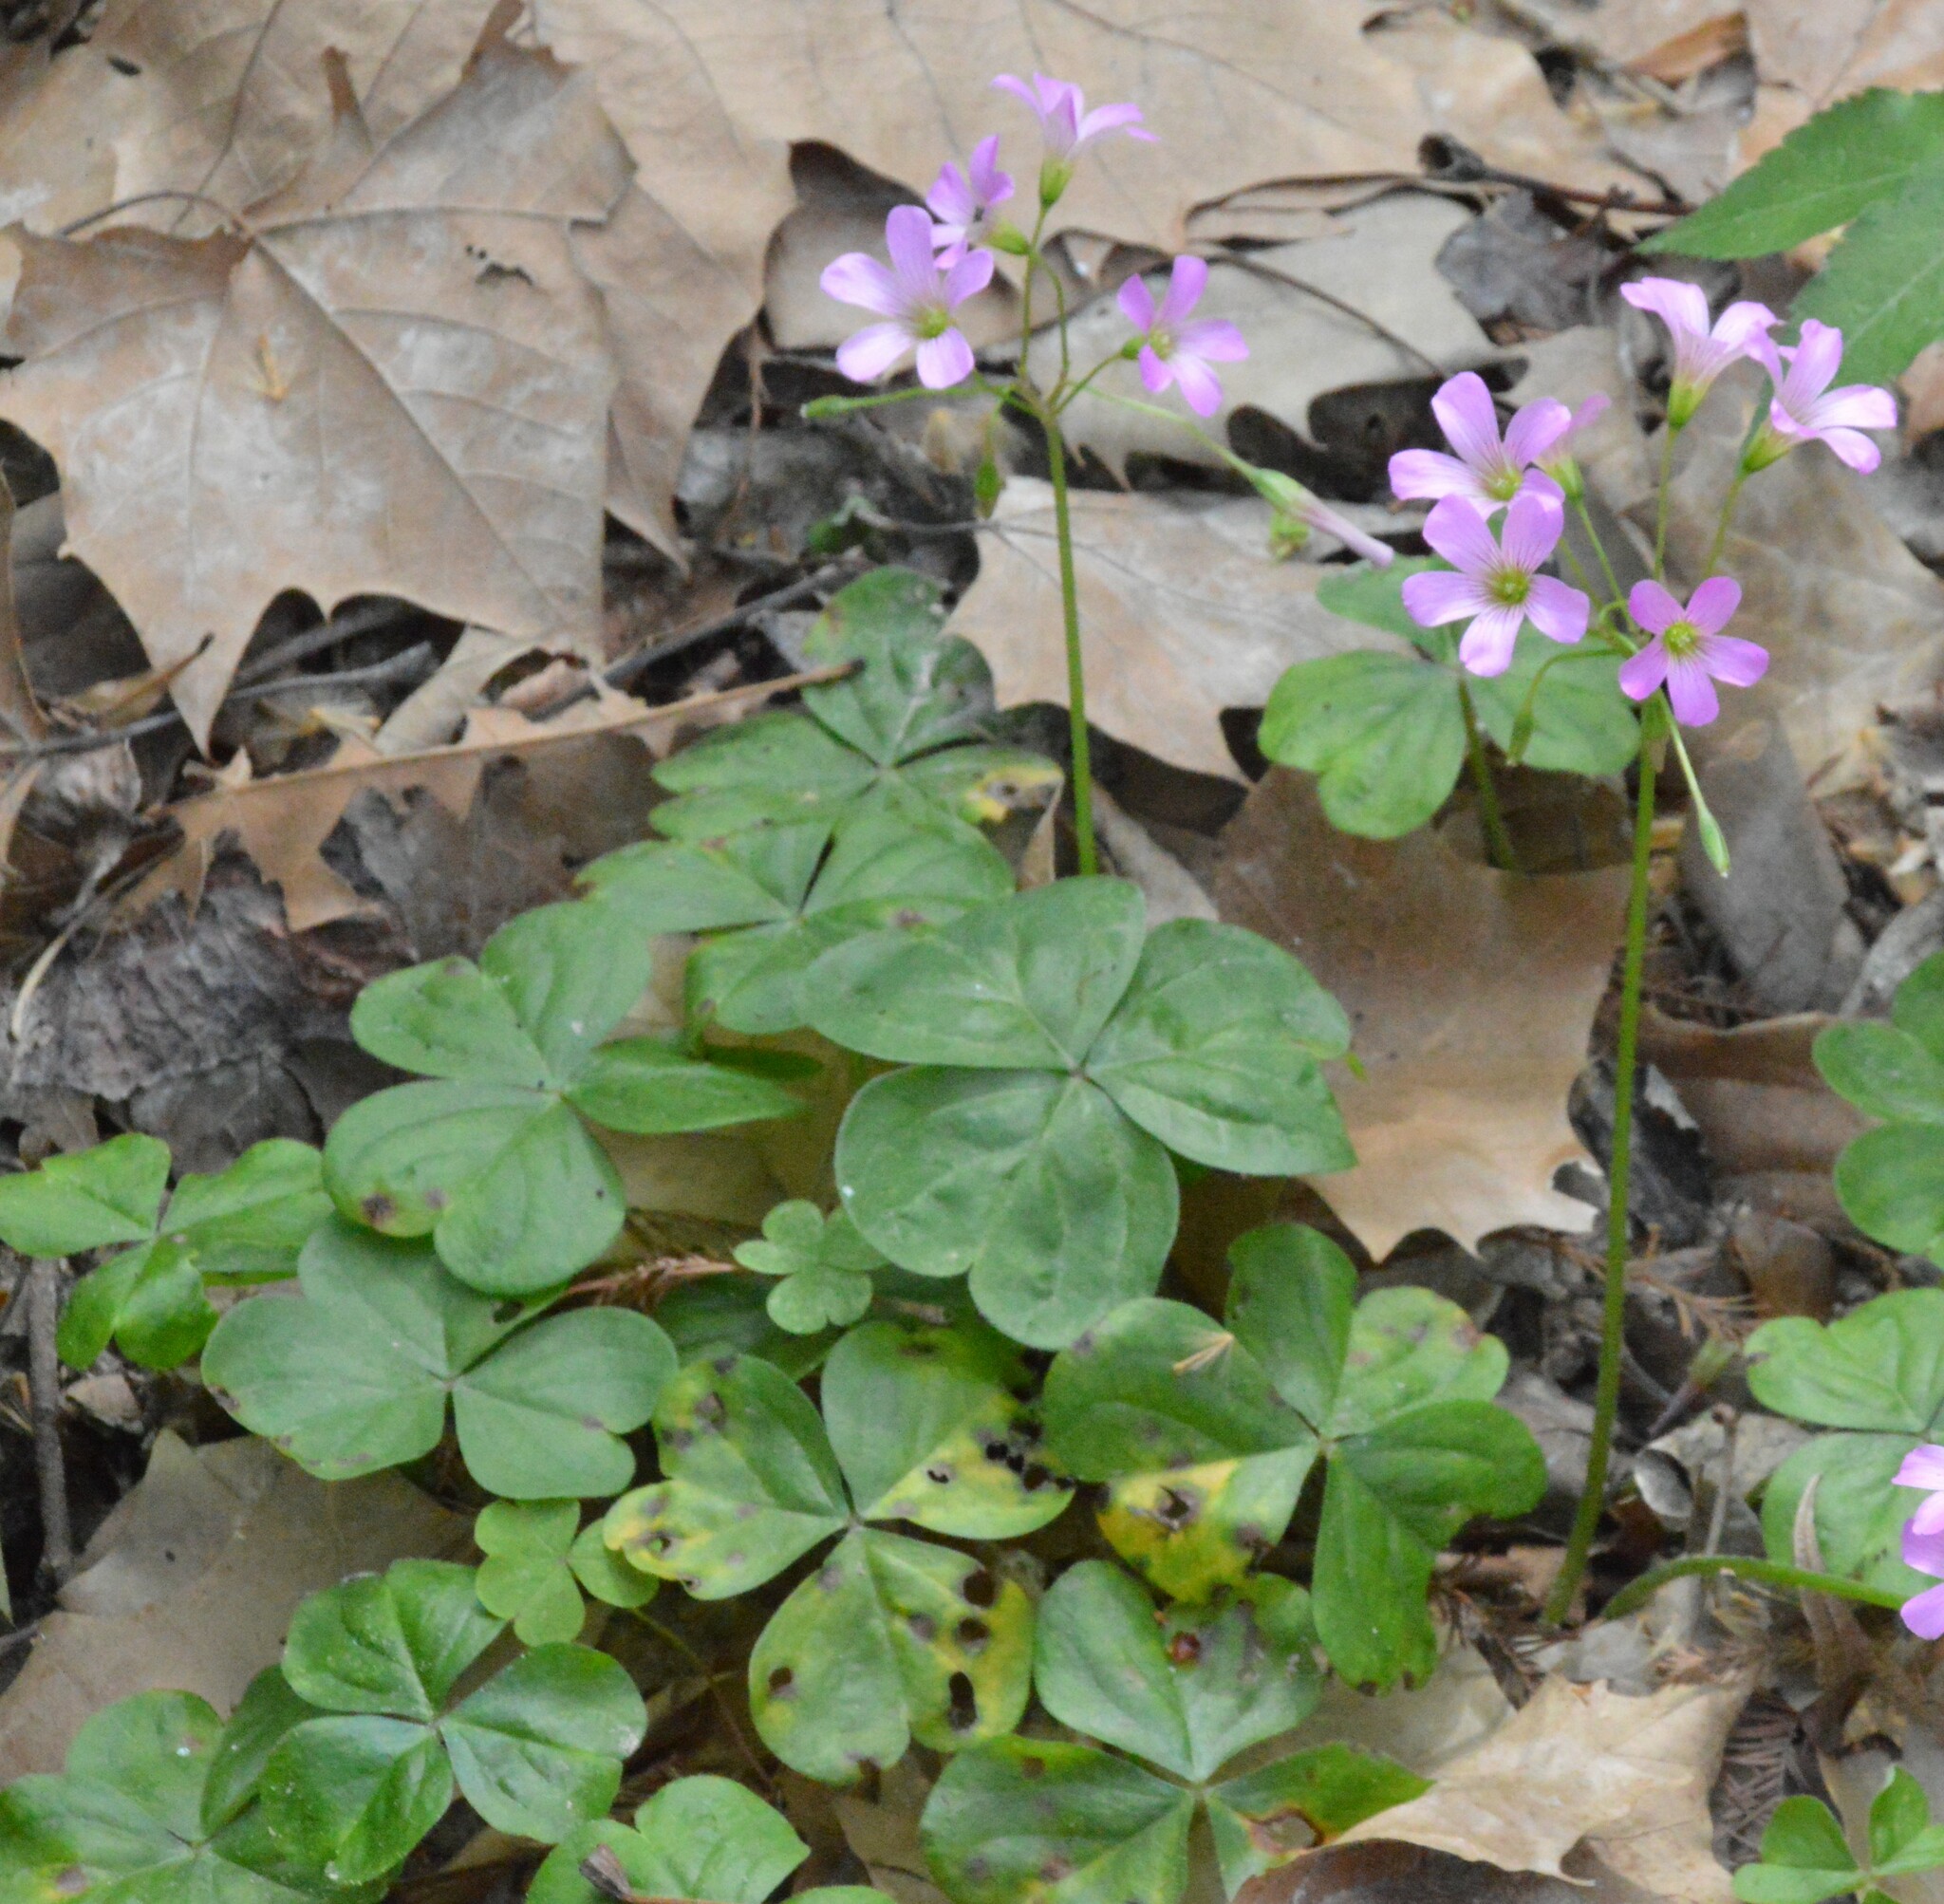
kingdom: Plantae
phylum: Tracheophyta
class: Magnoliopsida
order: Oxalidales
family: Oxalidaceae
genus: Oxalis
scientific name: Oxalis debilis
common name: Large-flowered pink-sorrel
